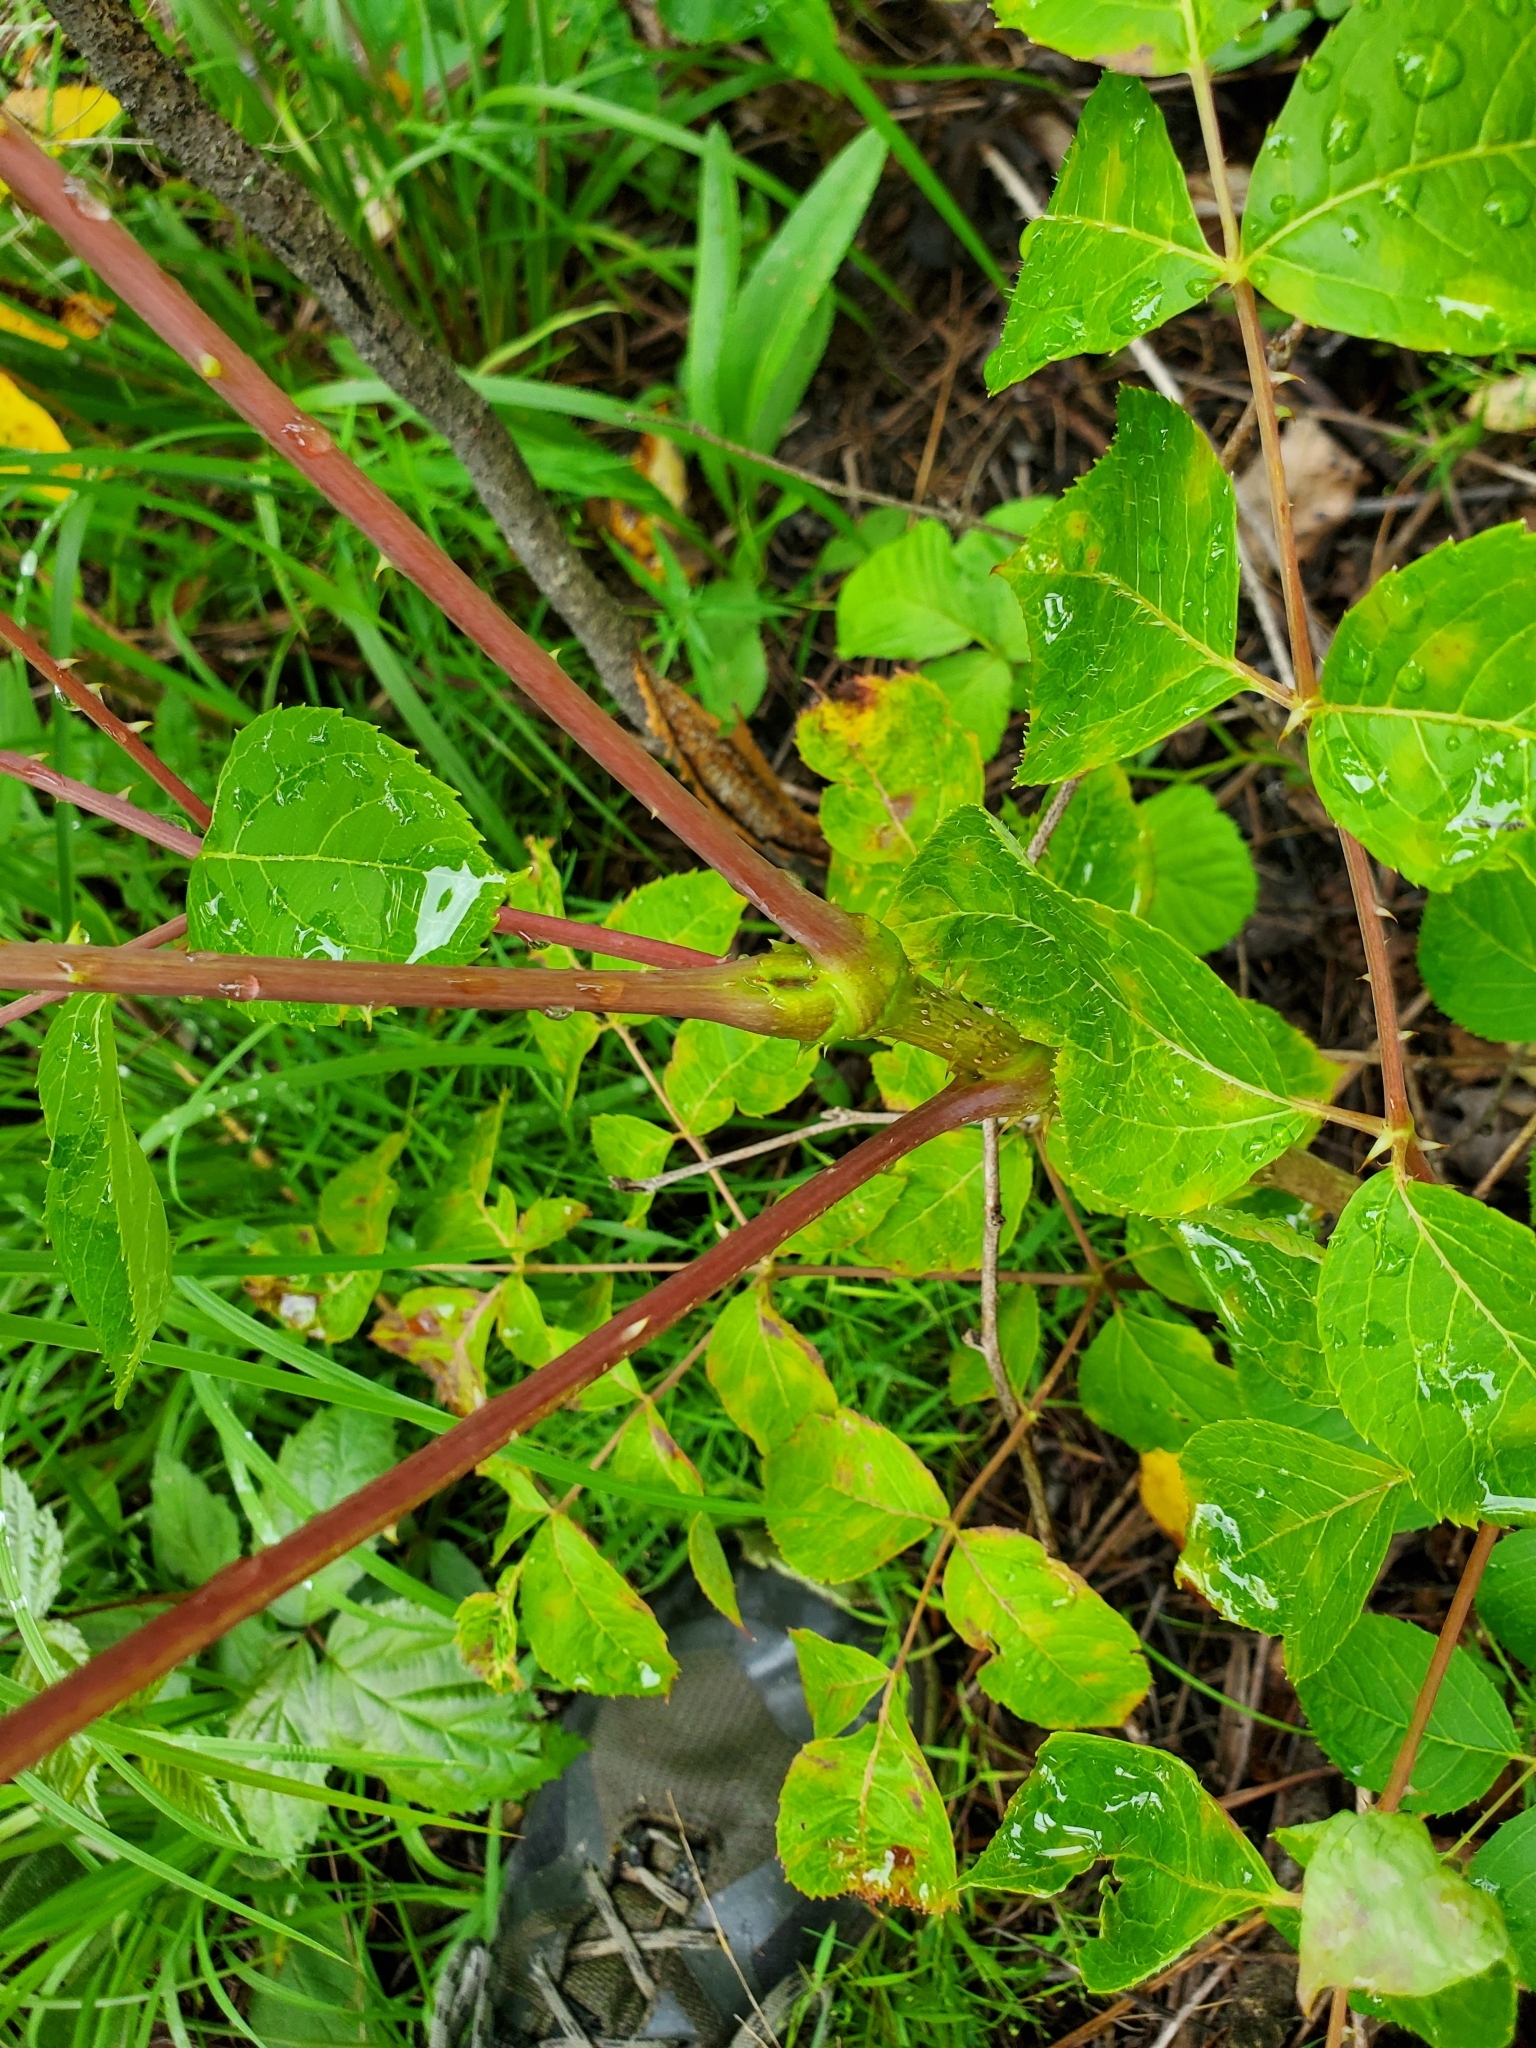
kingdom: Plantae
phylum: Tracheophyta
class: Magnoliopsida
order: Apiales
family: Araliaceae
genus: Aralia
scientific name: Aralia spinosa
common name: Hercules'-club
